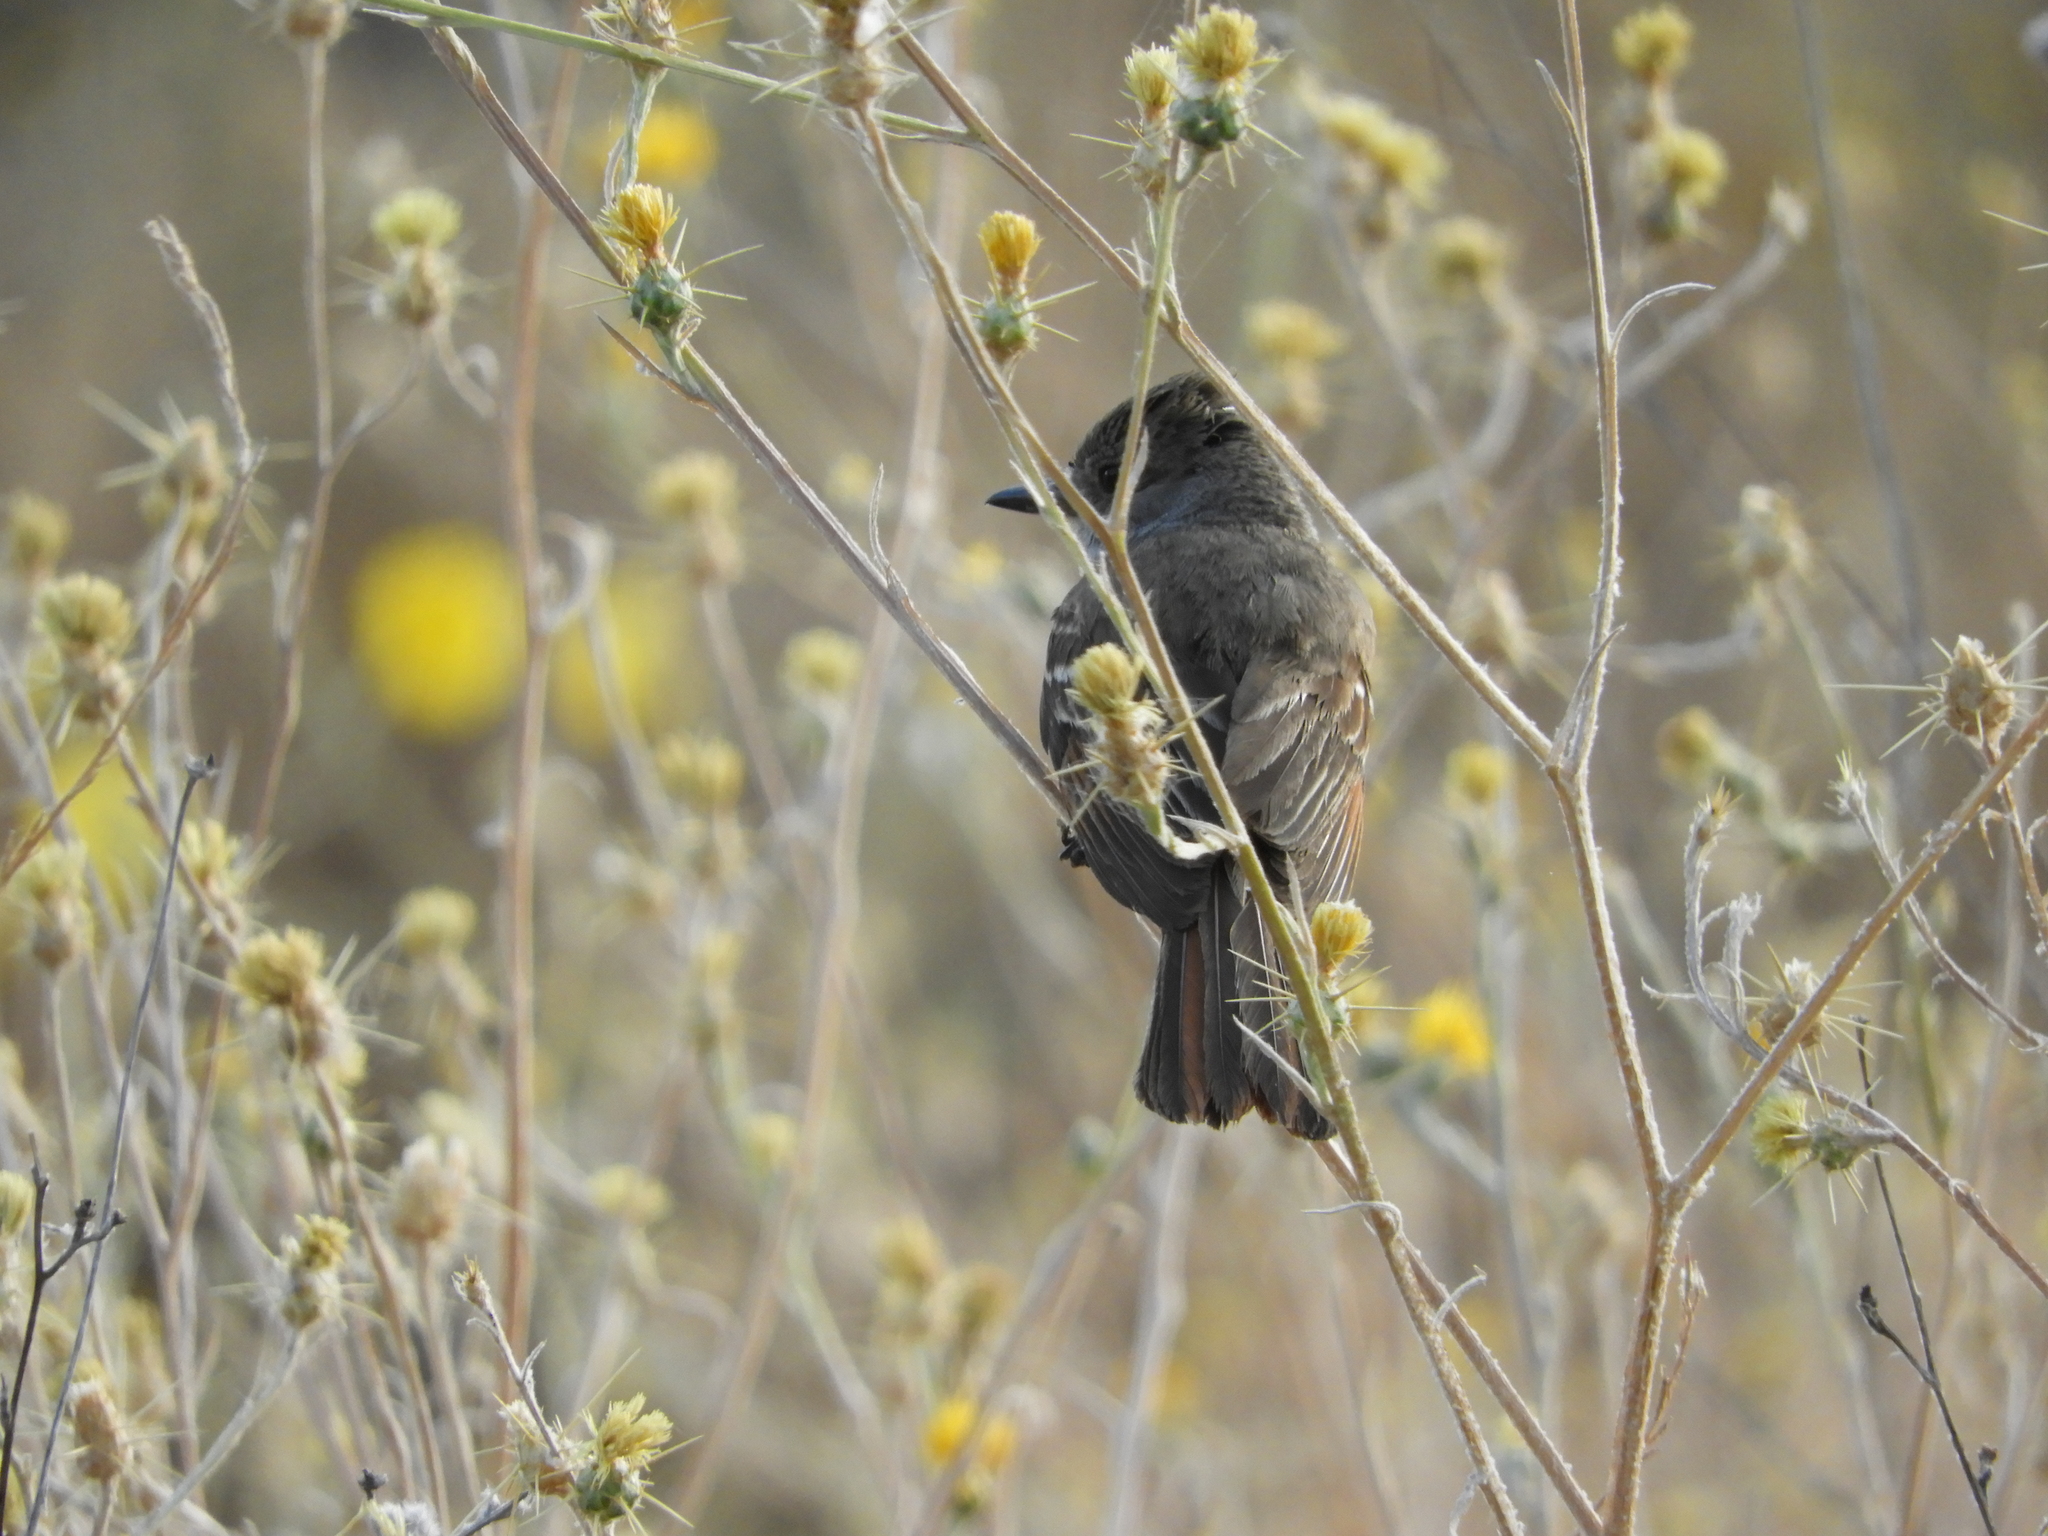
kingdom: Animalia
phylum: Chordata
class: Aves
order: Passeriformes
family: Tyrannidae
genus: Myiarchus
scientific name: Myiarchus cinerascens
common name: Ash-throated flycatcher
